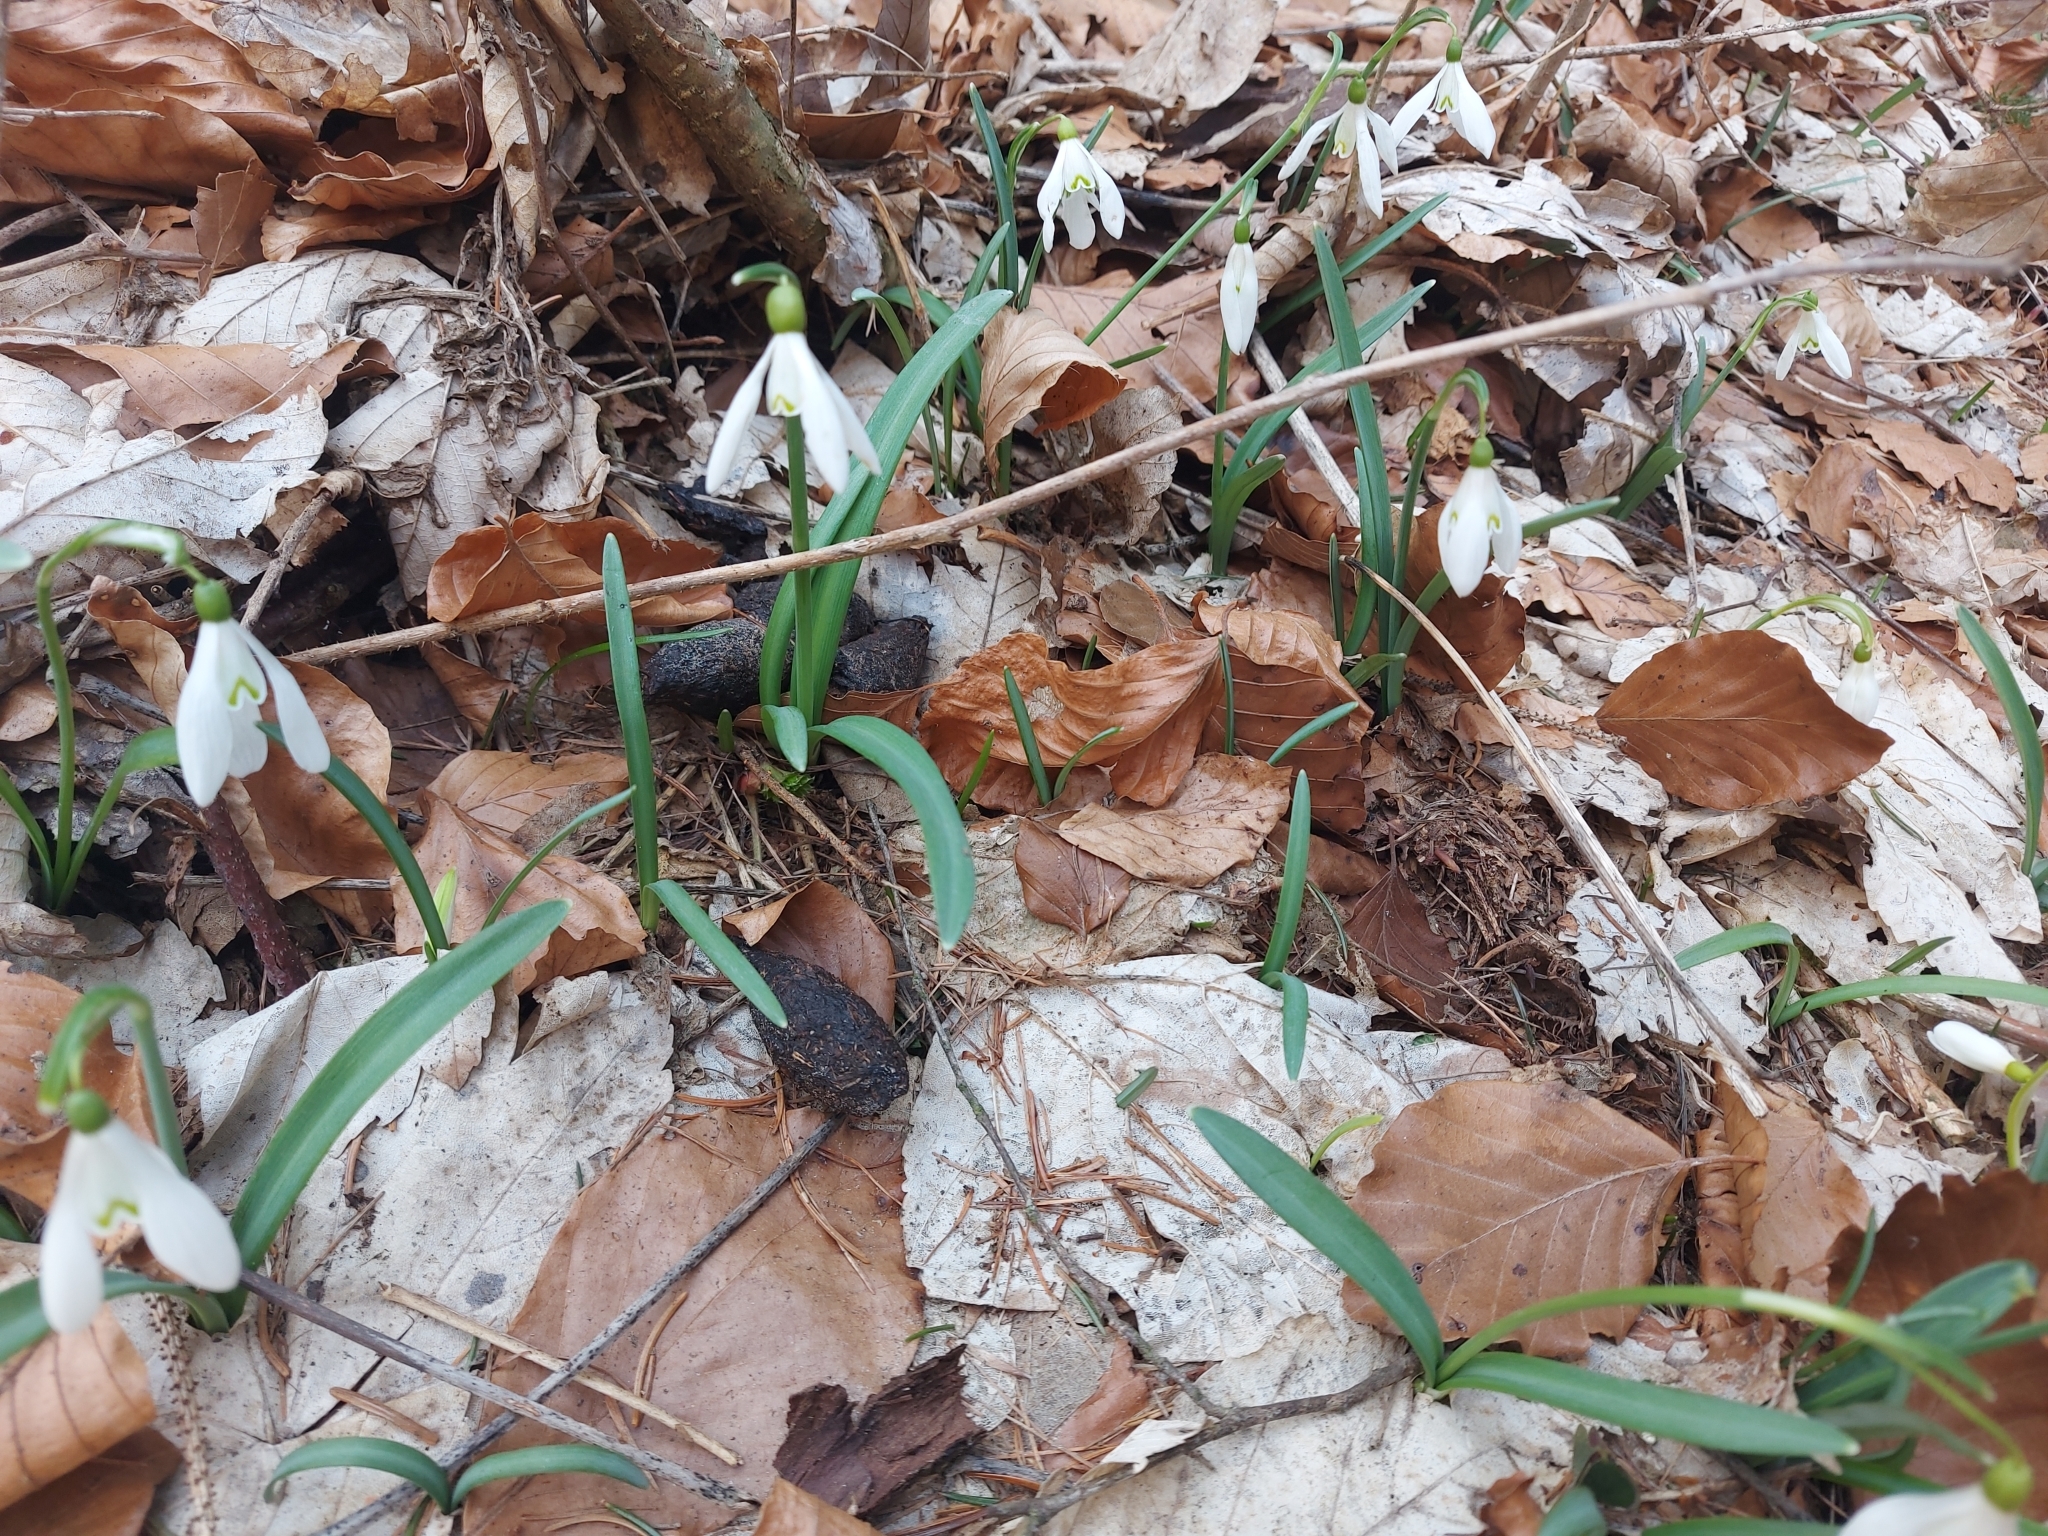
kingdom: Plantae
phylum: Tracheophyta
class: Liliopsida
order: Asparagales
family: Amaryllidaceae
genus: Galanthus
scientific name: Galanthus nivalis
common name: Snowdrop
